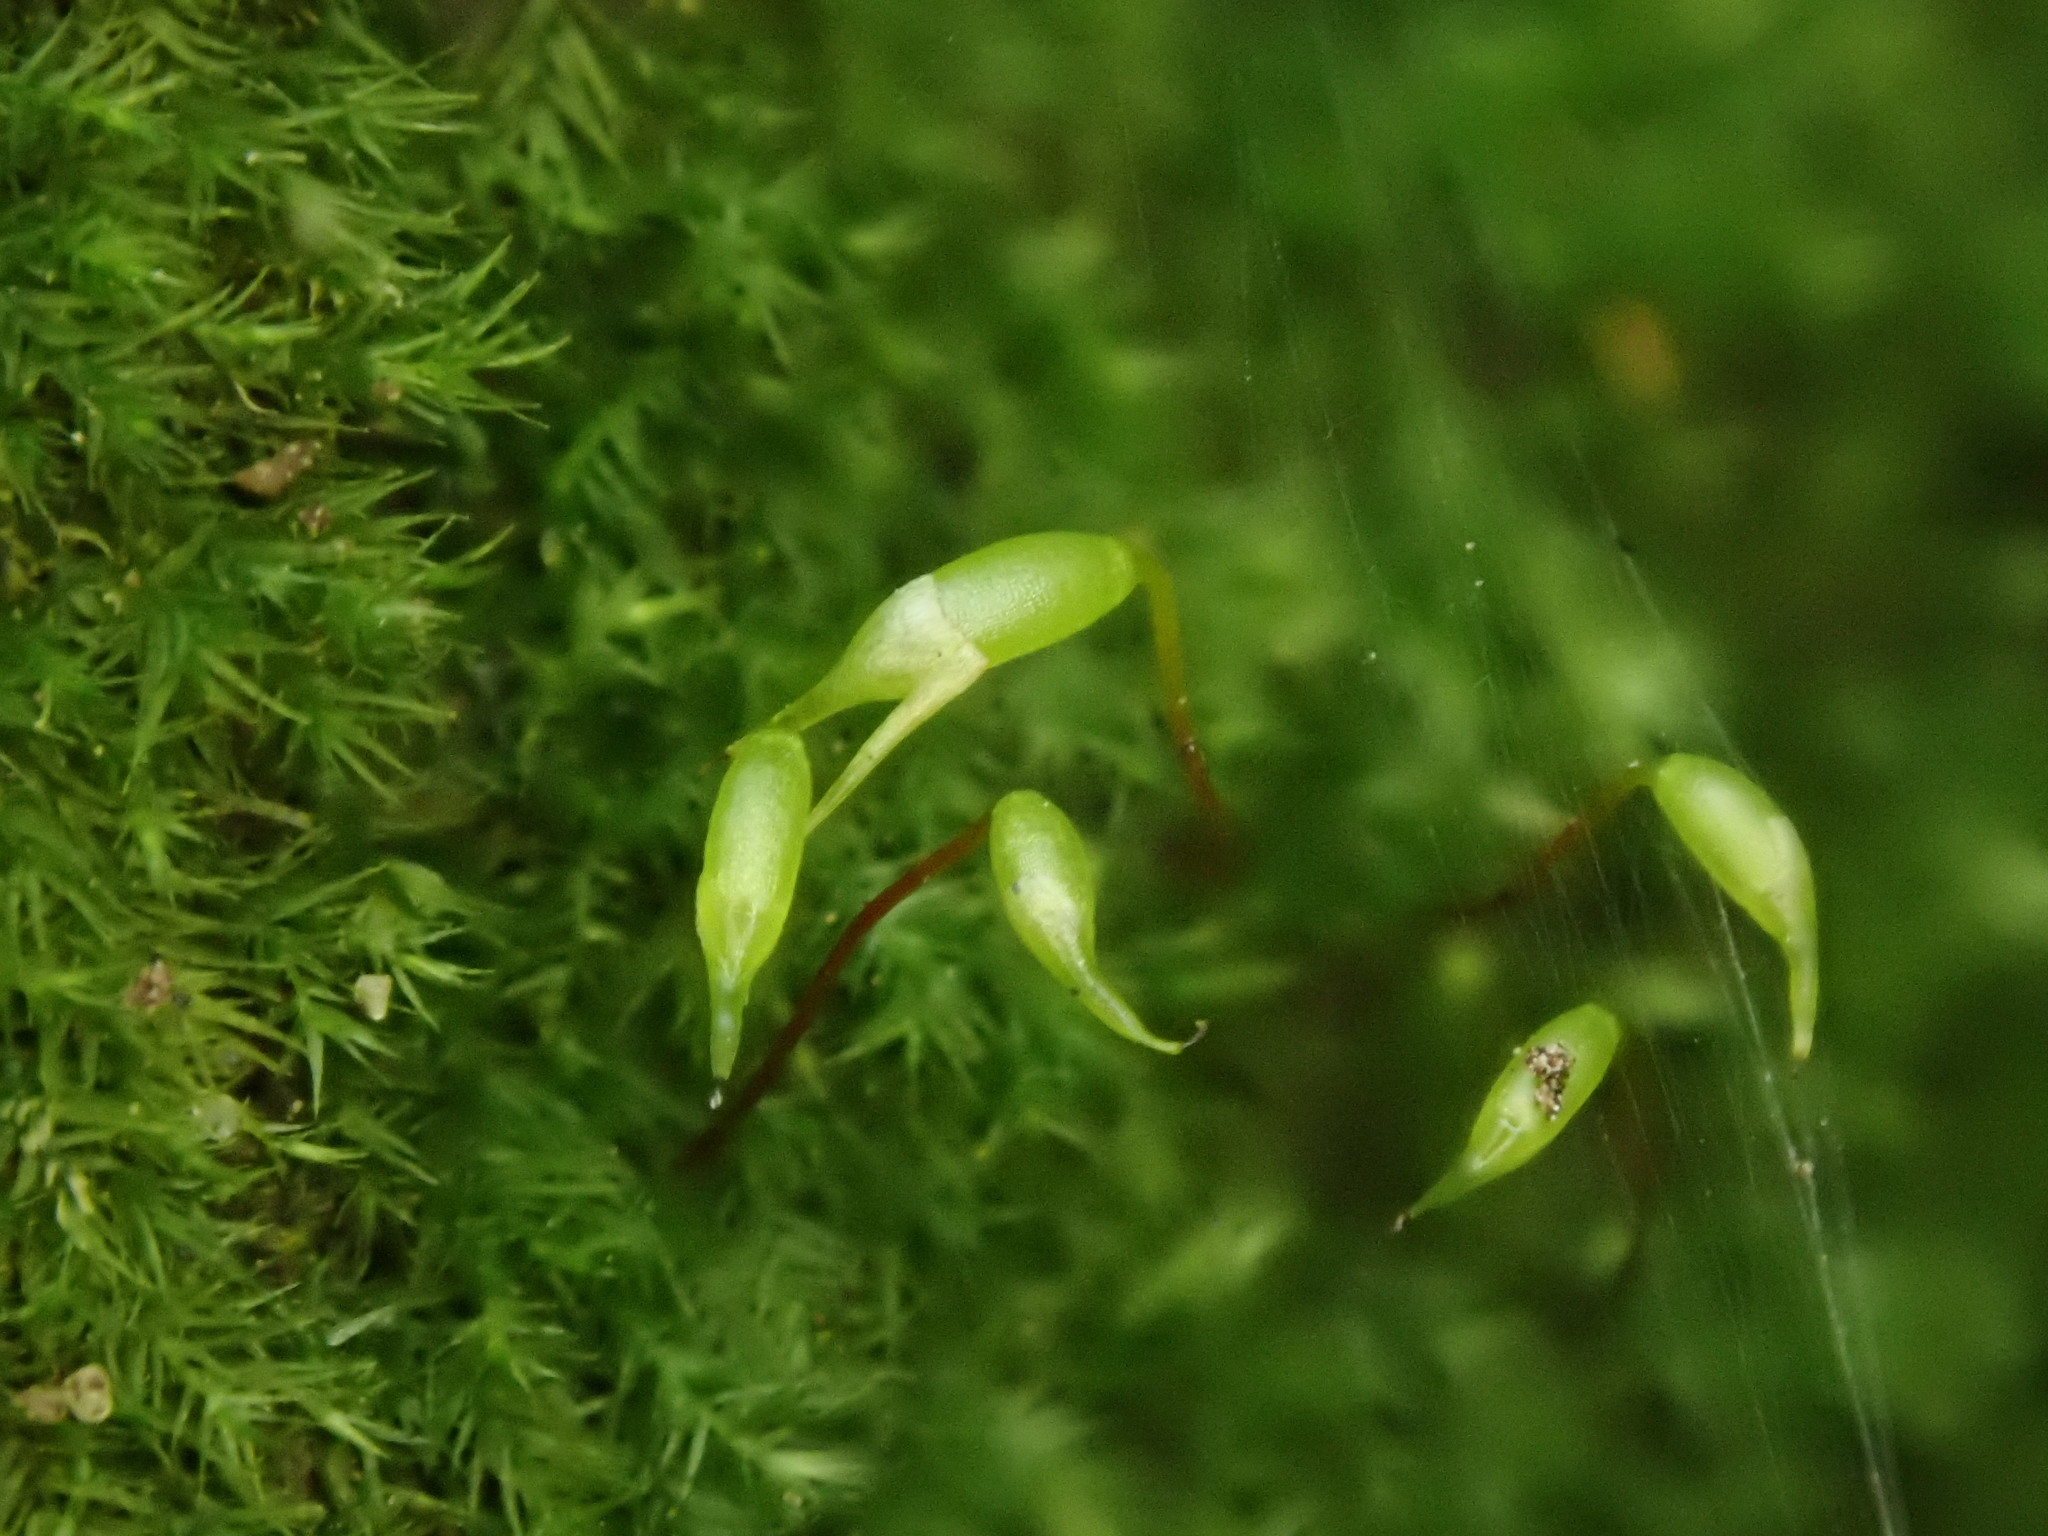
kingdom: Plantae
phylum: Bryophyta
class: Bryopsida
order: Hypnales
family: Brachytheciaceae
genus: Rhynchostegiella
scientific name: Rhynchostegiella tenella
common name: Tender feather-moss
